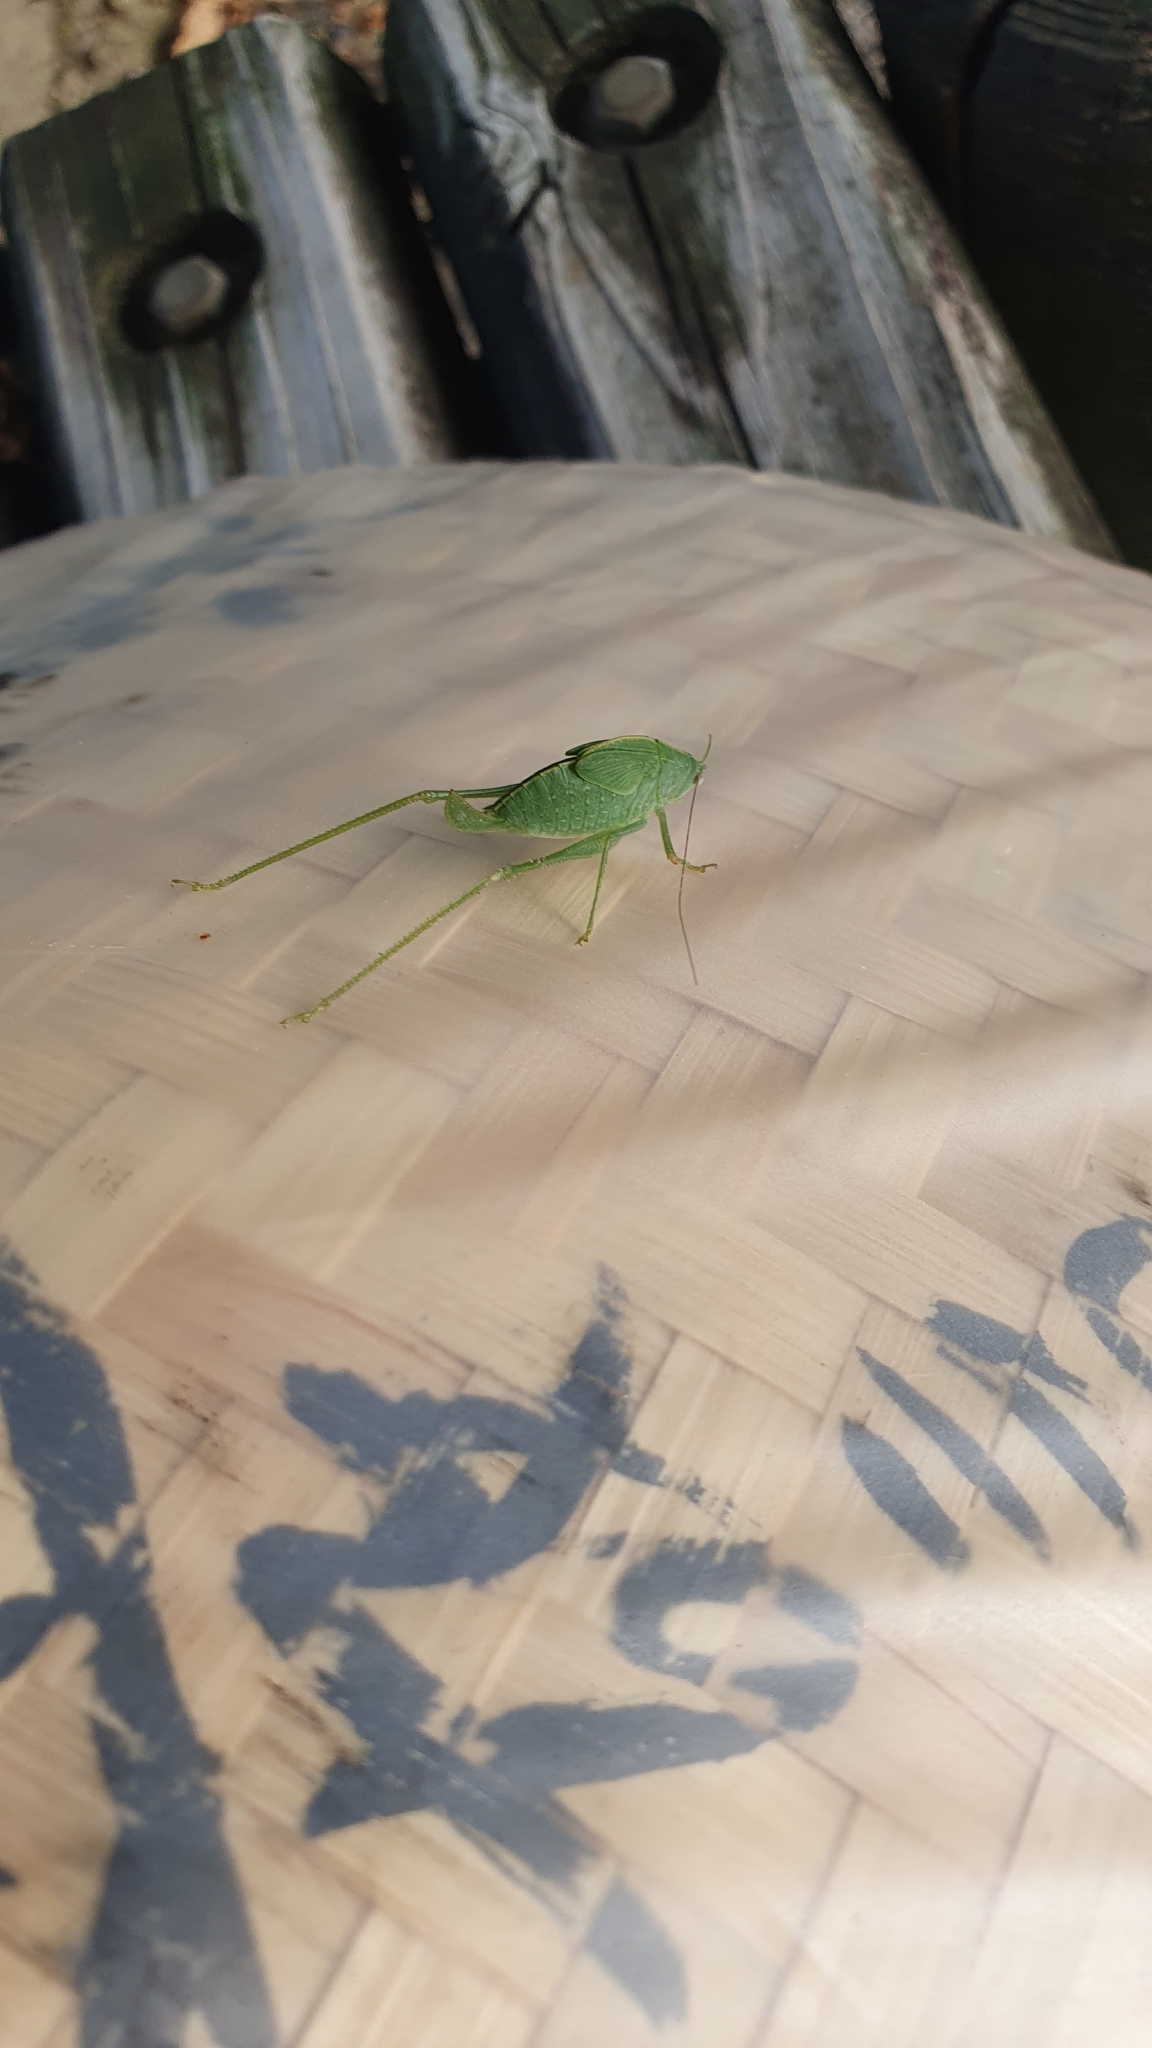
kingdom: Animalia
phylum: Arthropoda
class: Insecta
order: Orthoptera
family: Tettigoniidae
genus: Phaulula
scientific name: Phaulula macilenta
